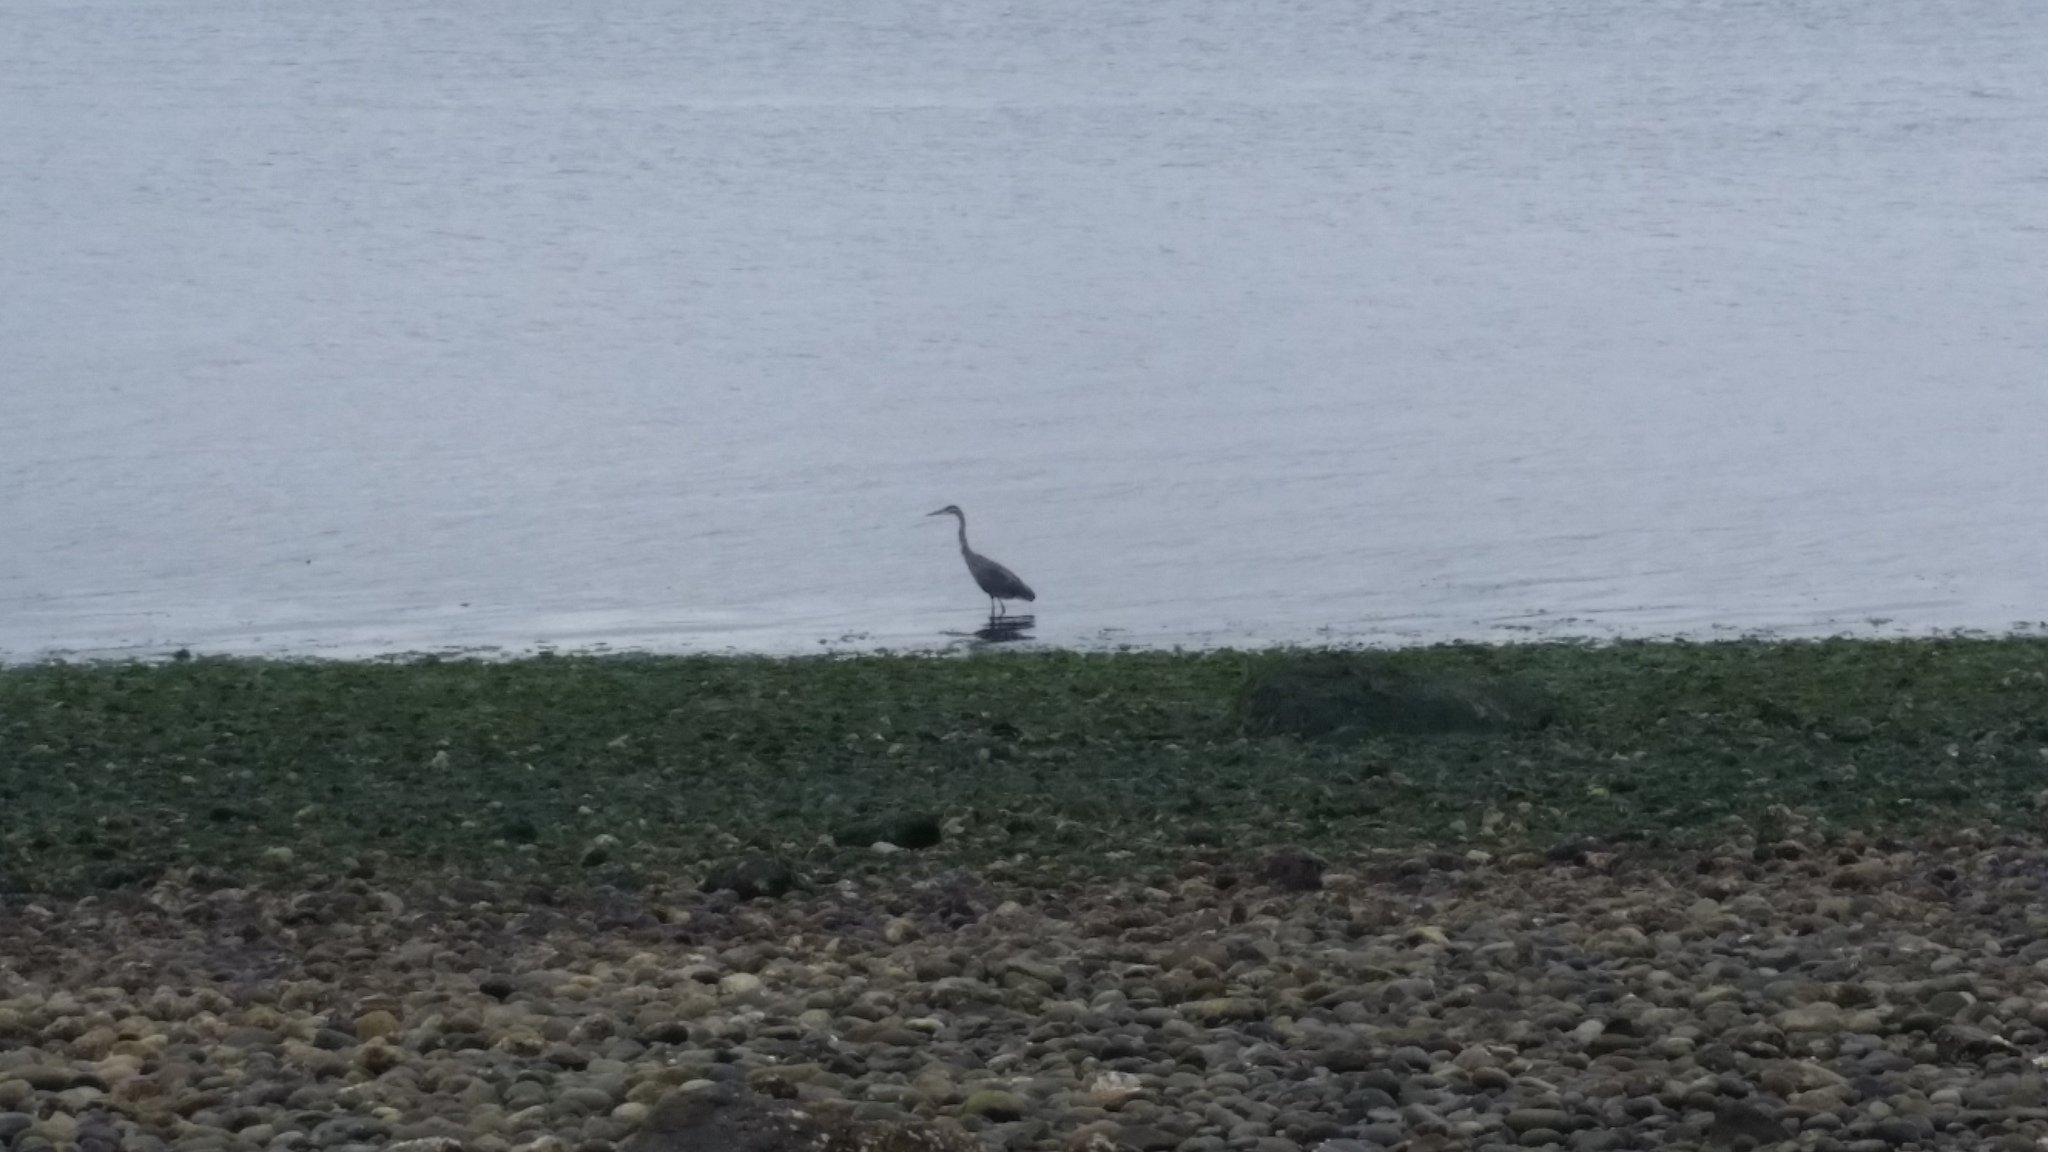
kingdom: Animalia
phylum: Chordata
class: Aves
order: Pelecaniformes
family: Ardeidae
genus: Ardea
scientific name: Ardea herodias
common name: Great blue heron
